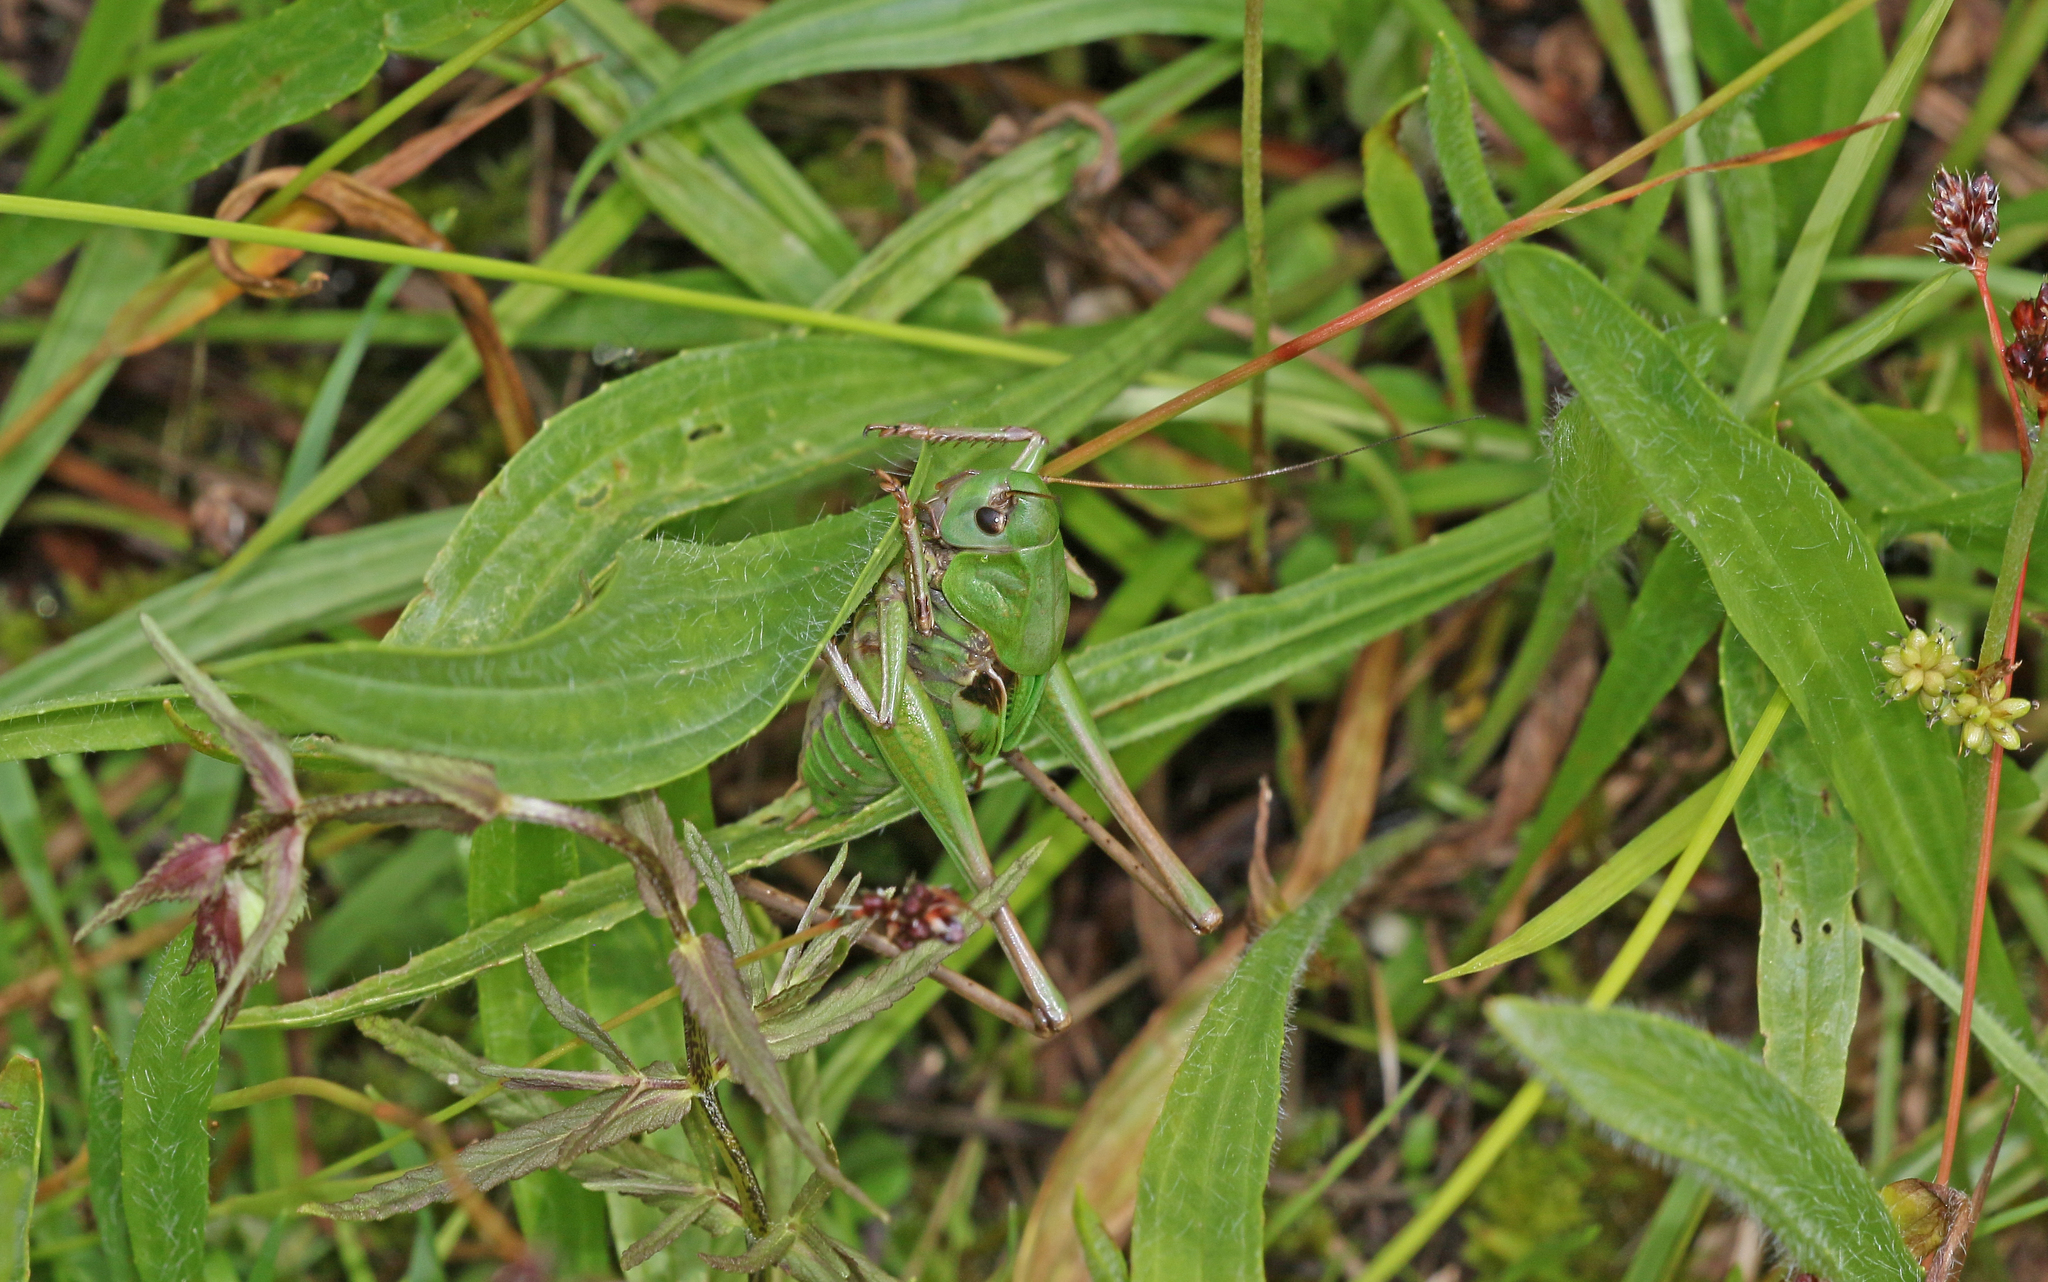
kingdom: Animalia
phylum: Arthropoda
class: Insecta
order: Orthoptera
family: Tettigoniidae
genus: Decticus
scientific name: Decticus verrucivorus
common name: Wart-biter
